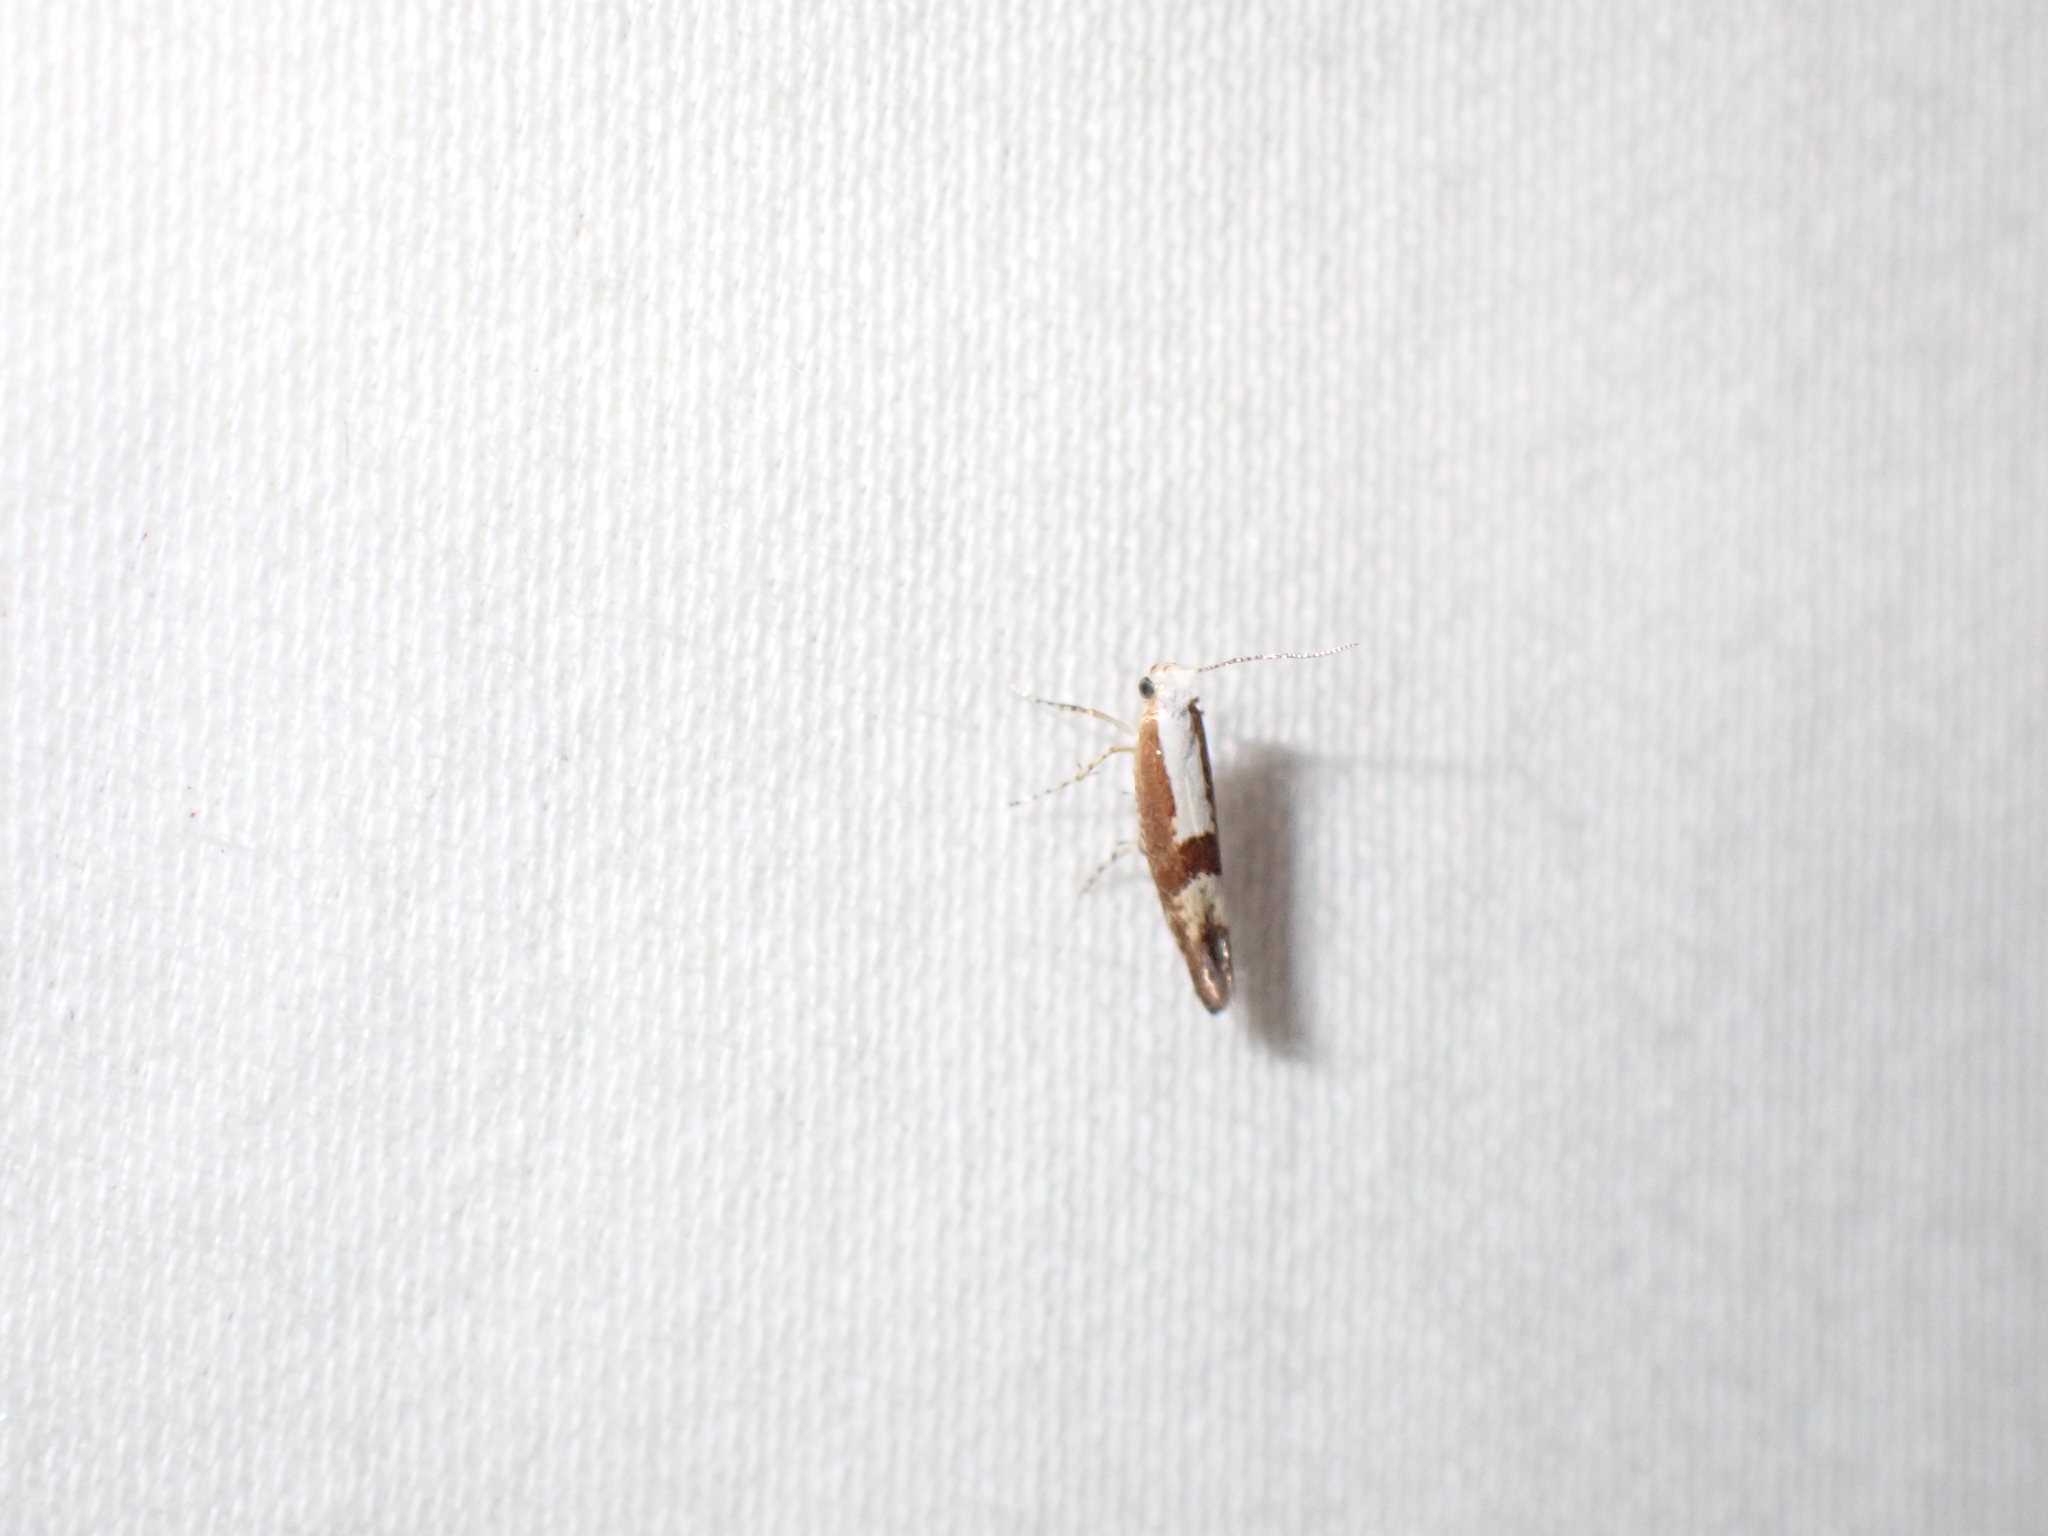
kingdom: Animalia
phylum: Arthropoda
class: Insecta
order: Lepidoptera
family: Argyresthiidae
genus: Argyresthia
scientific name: Argyresthia pruniella
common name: Cherry fruit moth
